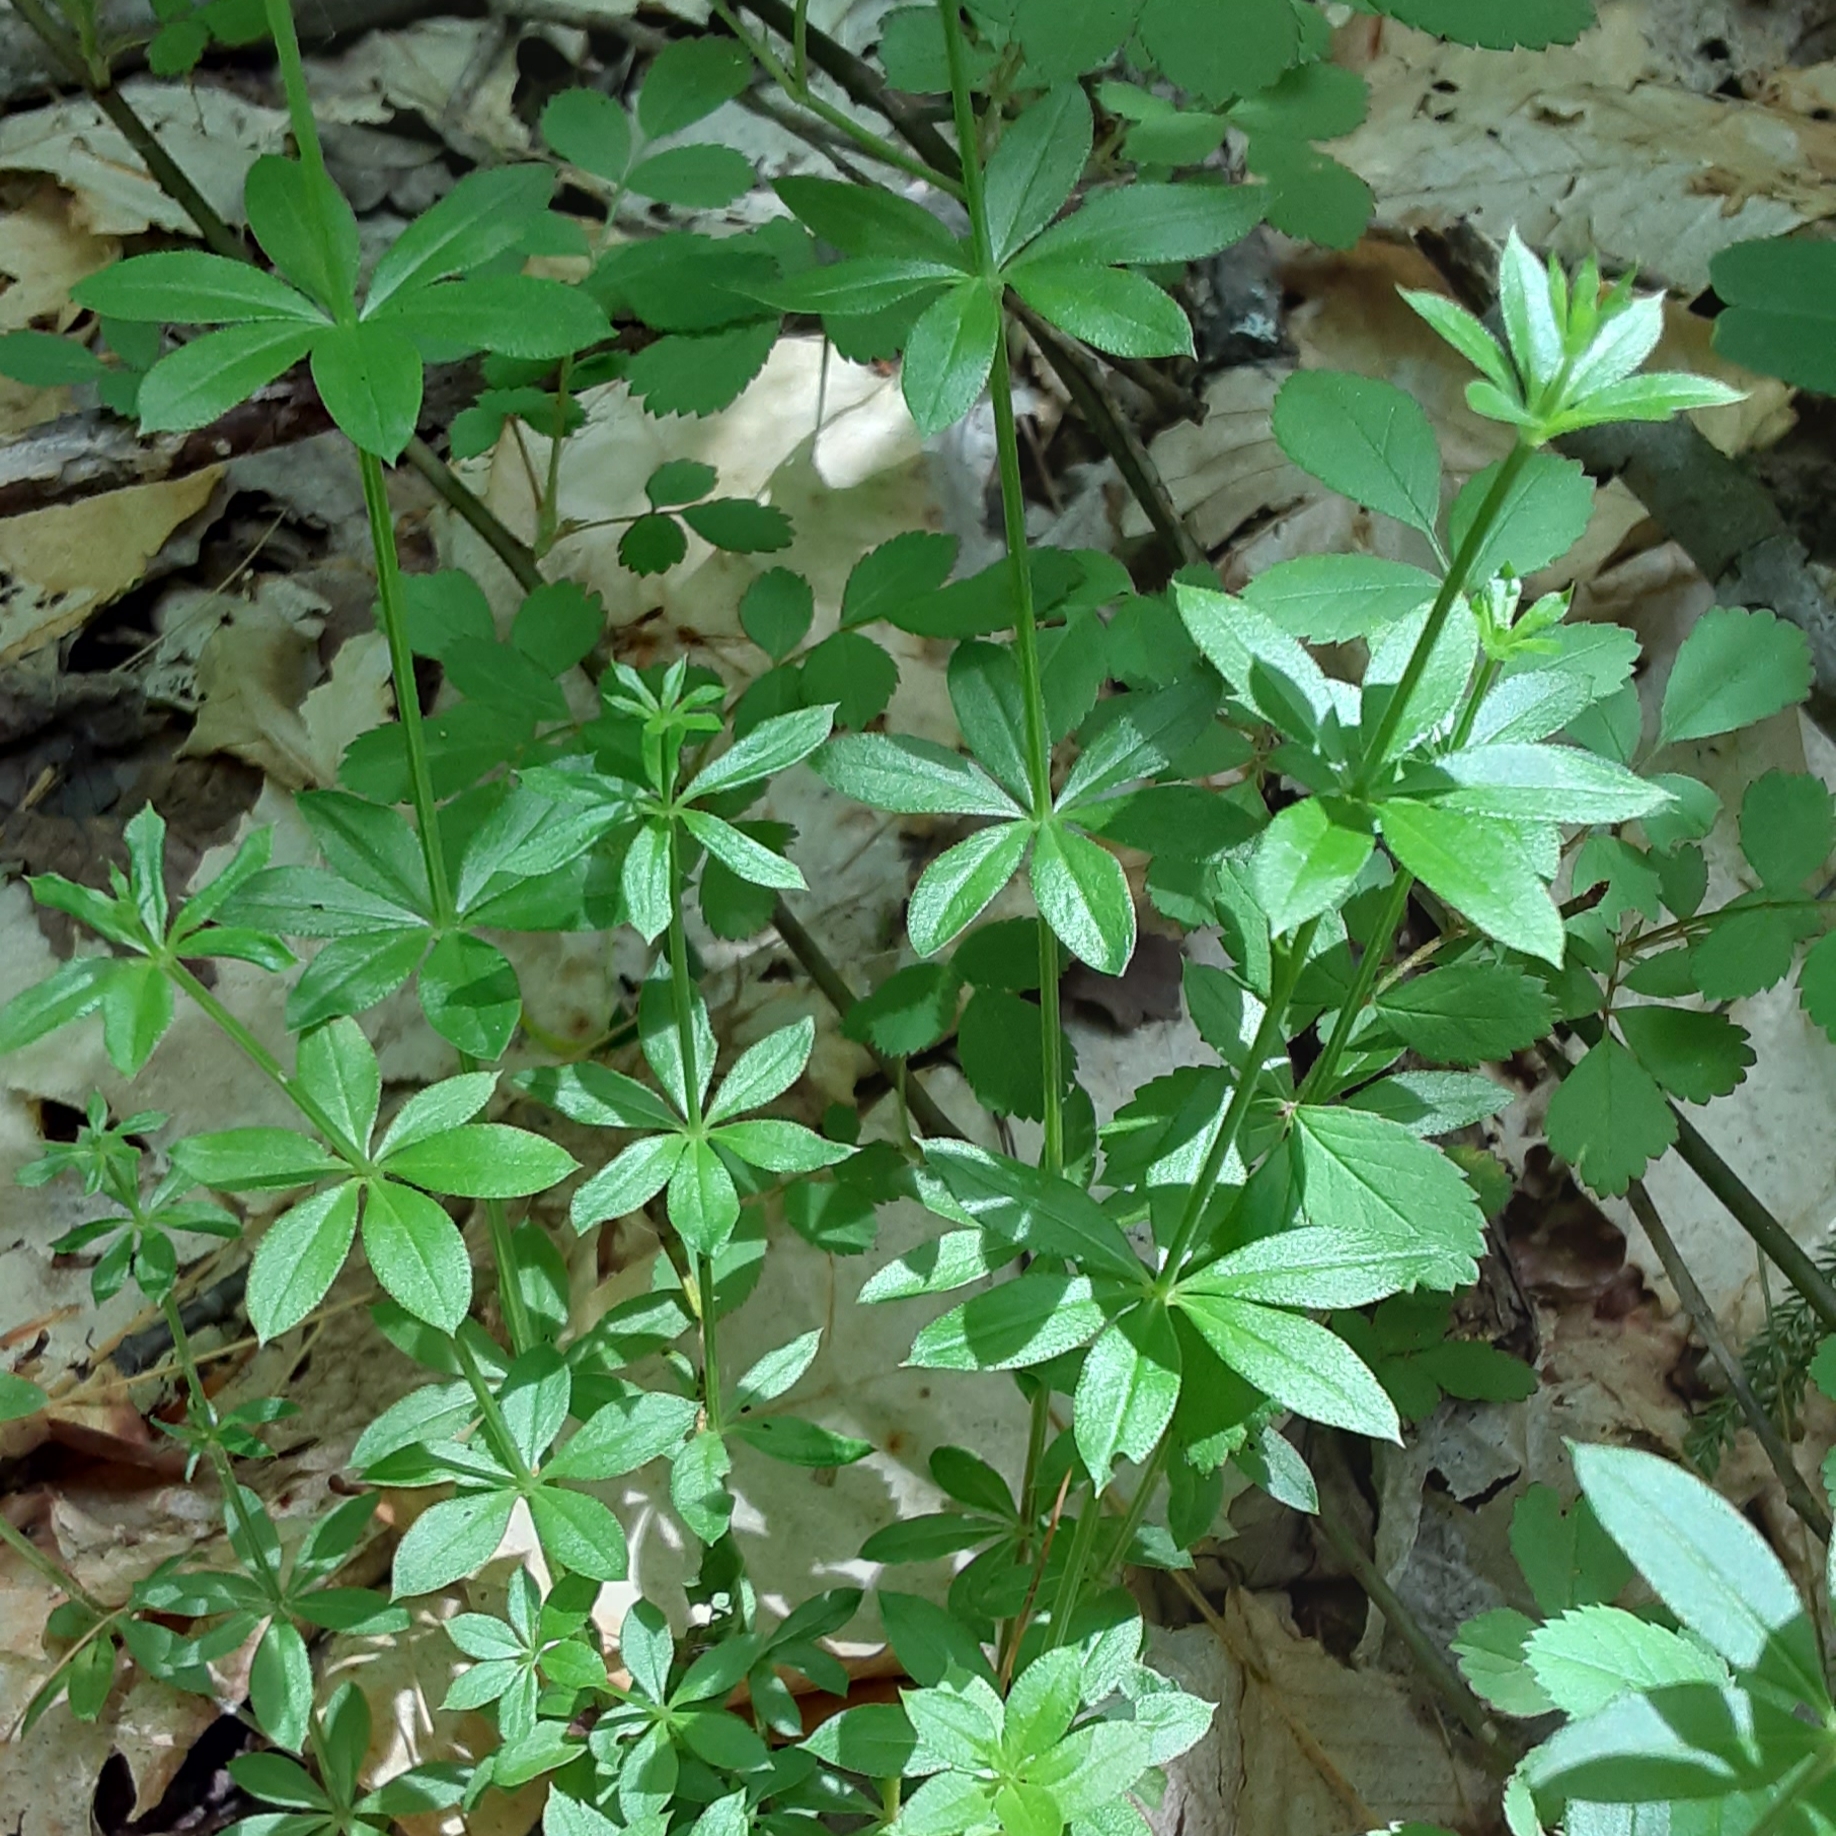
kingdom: Plantae
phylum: Tracheophyta
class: Magnoliopsida
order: Gentianales
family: Rubiaceae
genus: Galium
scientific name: Galium triflorum
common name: Fragrant bedstraw
